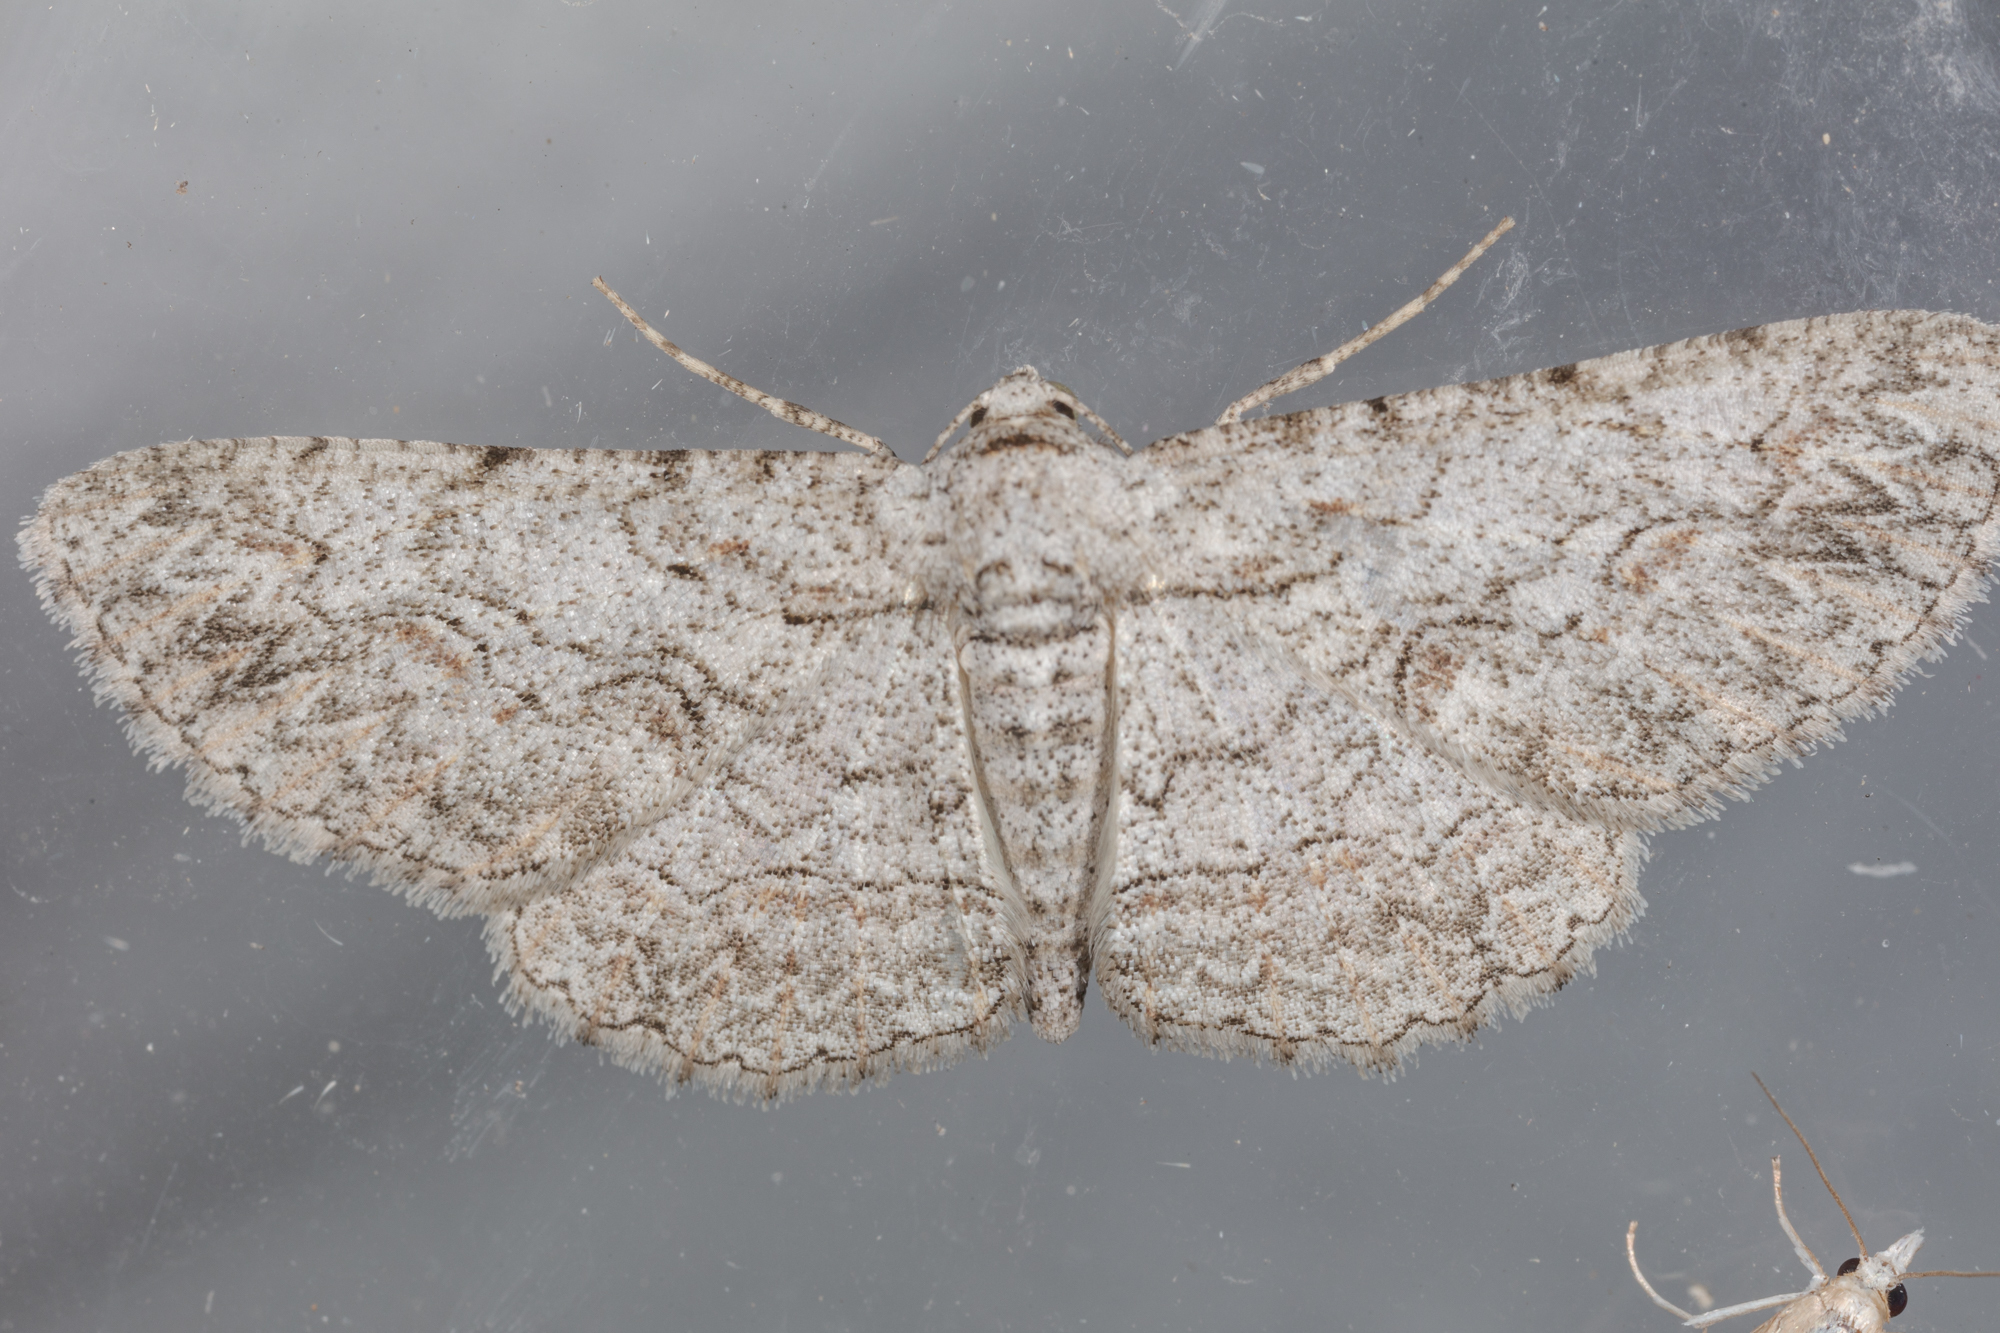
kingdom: Animalia
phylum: Arthropoda
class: Insecta
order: Lepidoptera
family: Geometridae
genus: Iridopsis
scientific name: Iridopsis defectaria
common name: Brown-shaded gray
